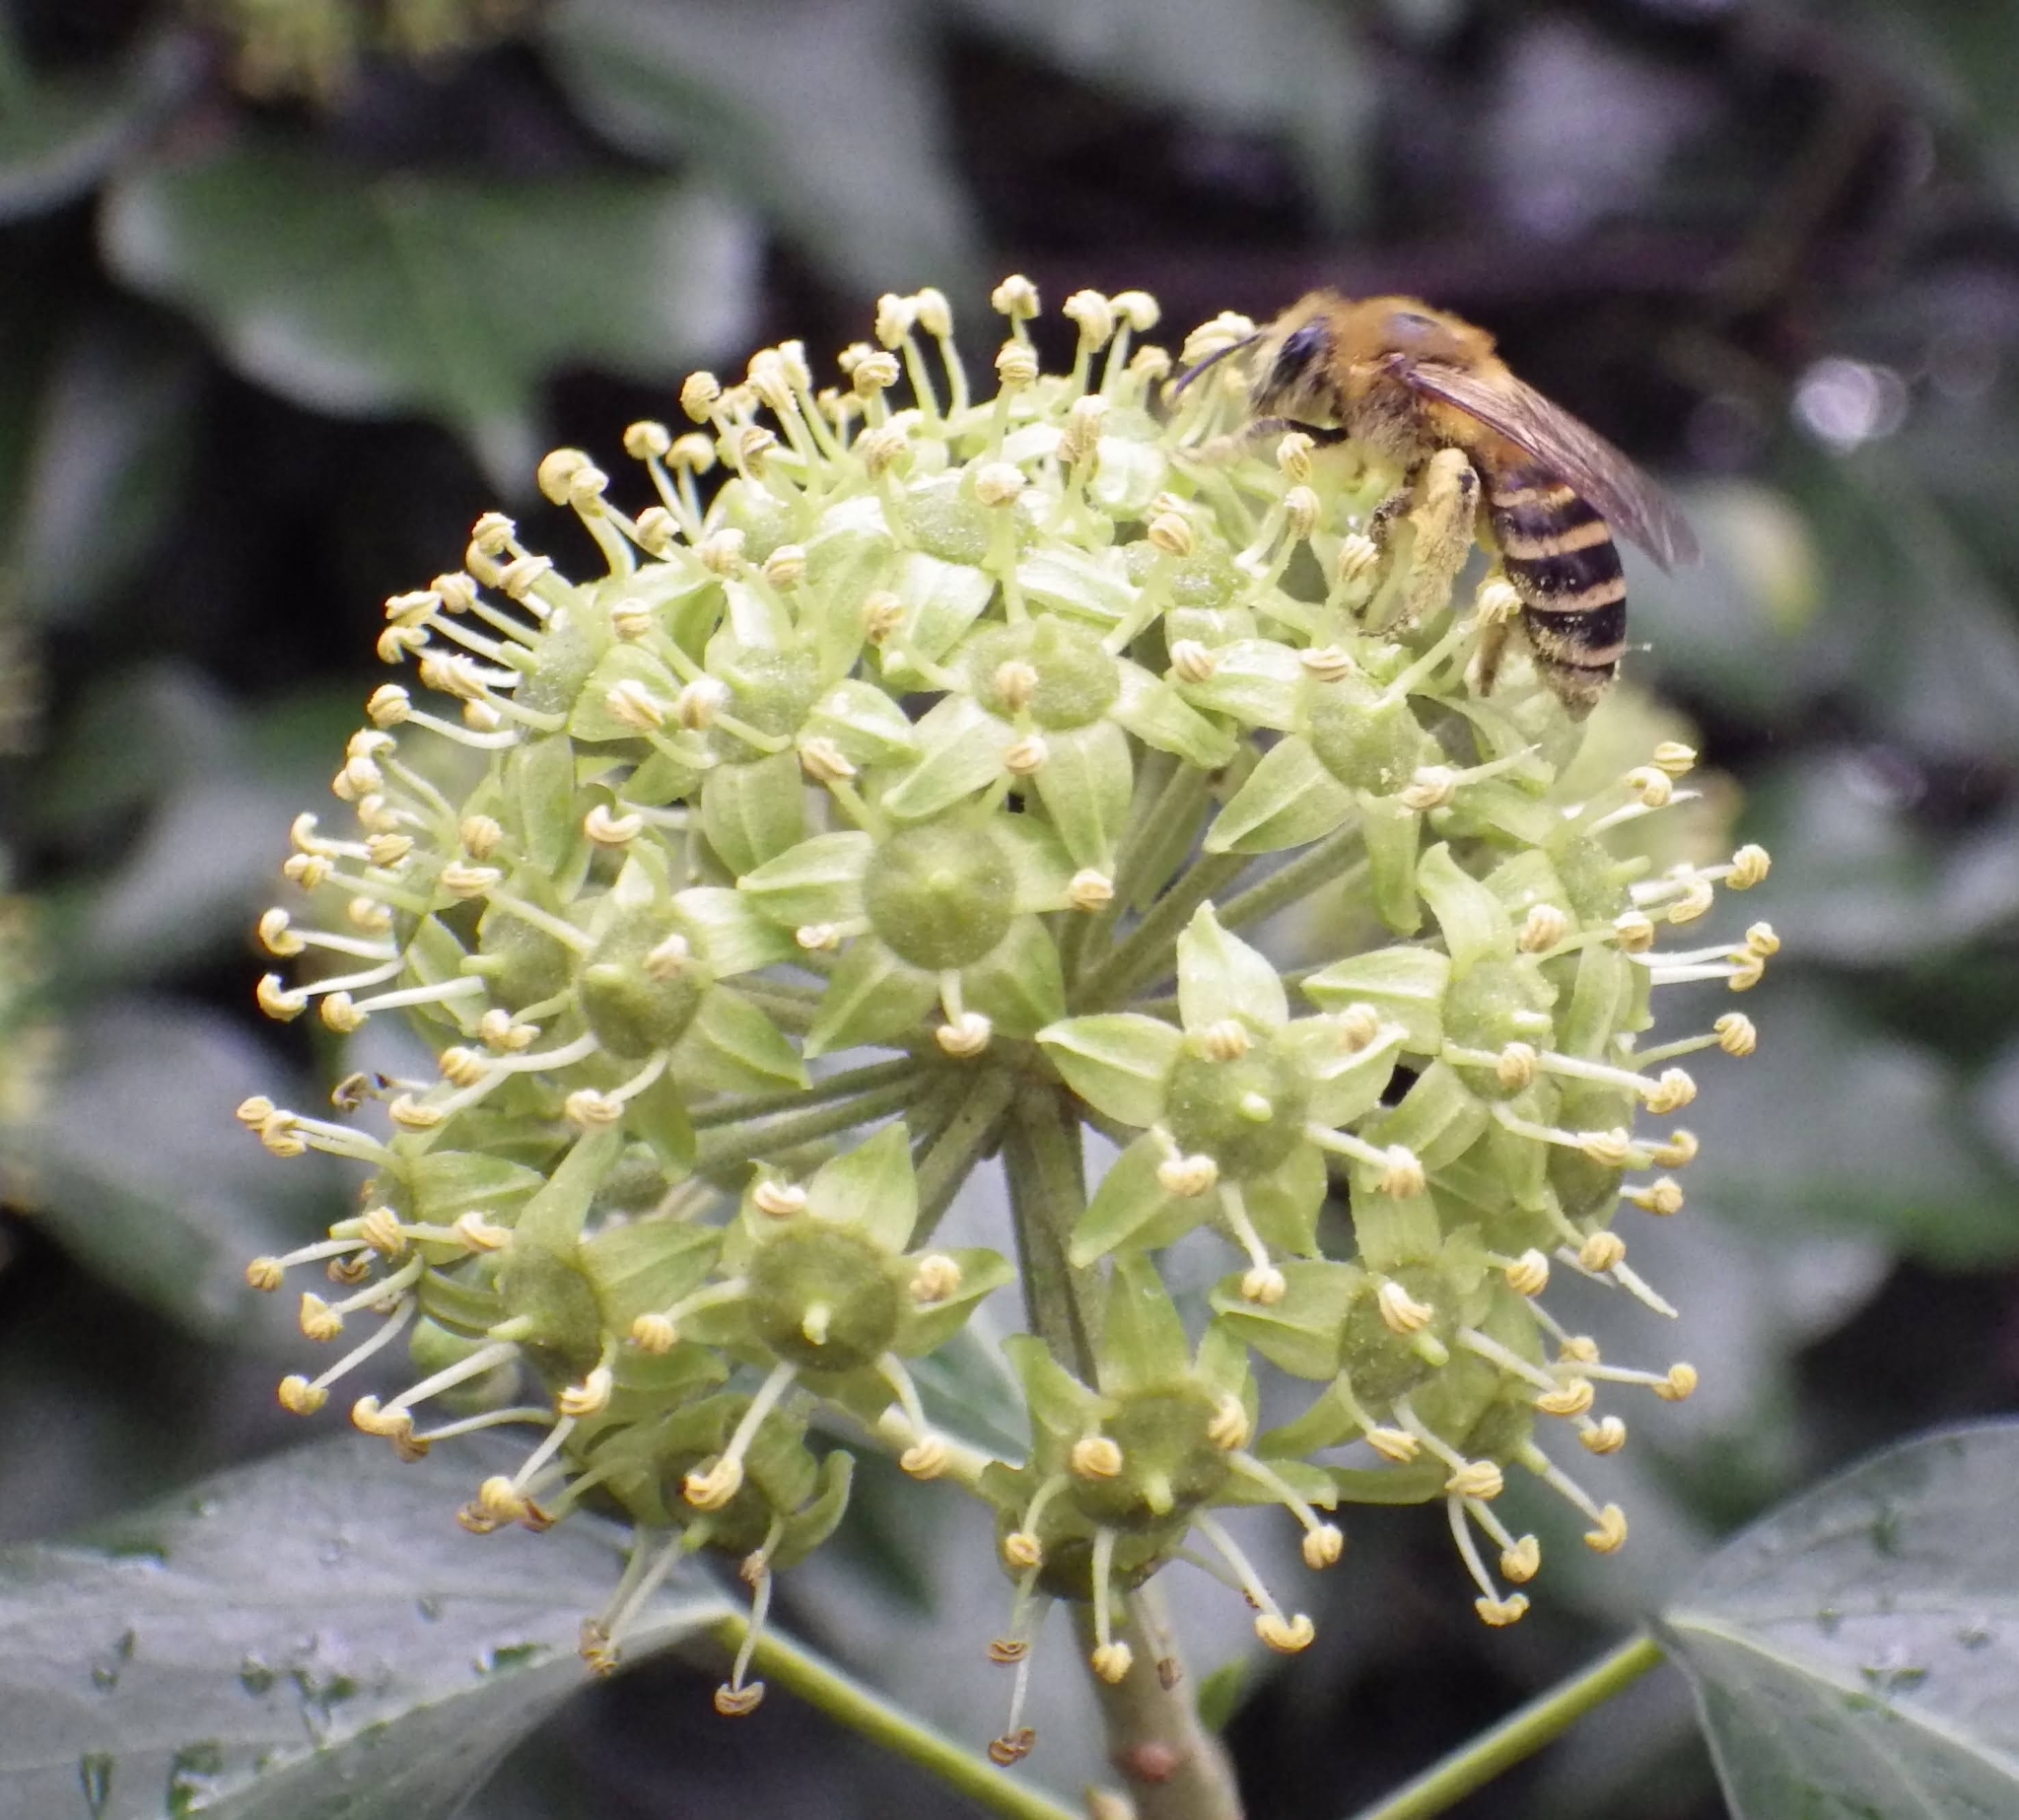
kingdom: Animalia
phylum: Arthropoda
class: Insecta
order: Hymenoptera
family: Colletidae
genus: Colletes
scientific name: Colletes hederae
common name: Ivy bee
